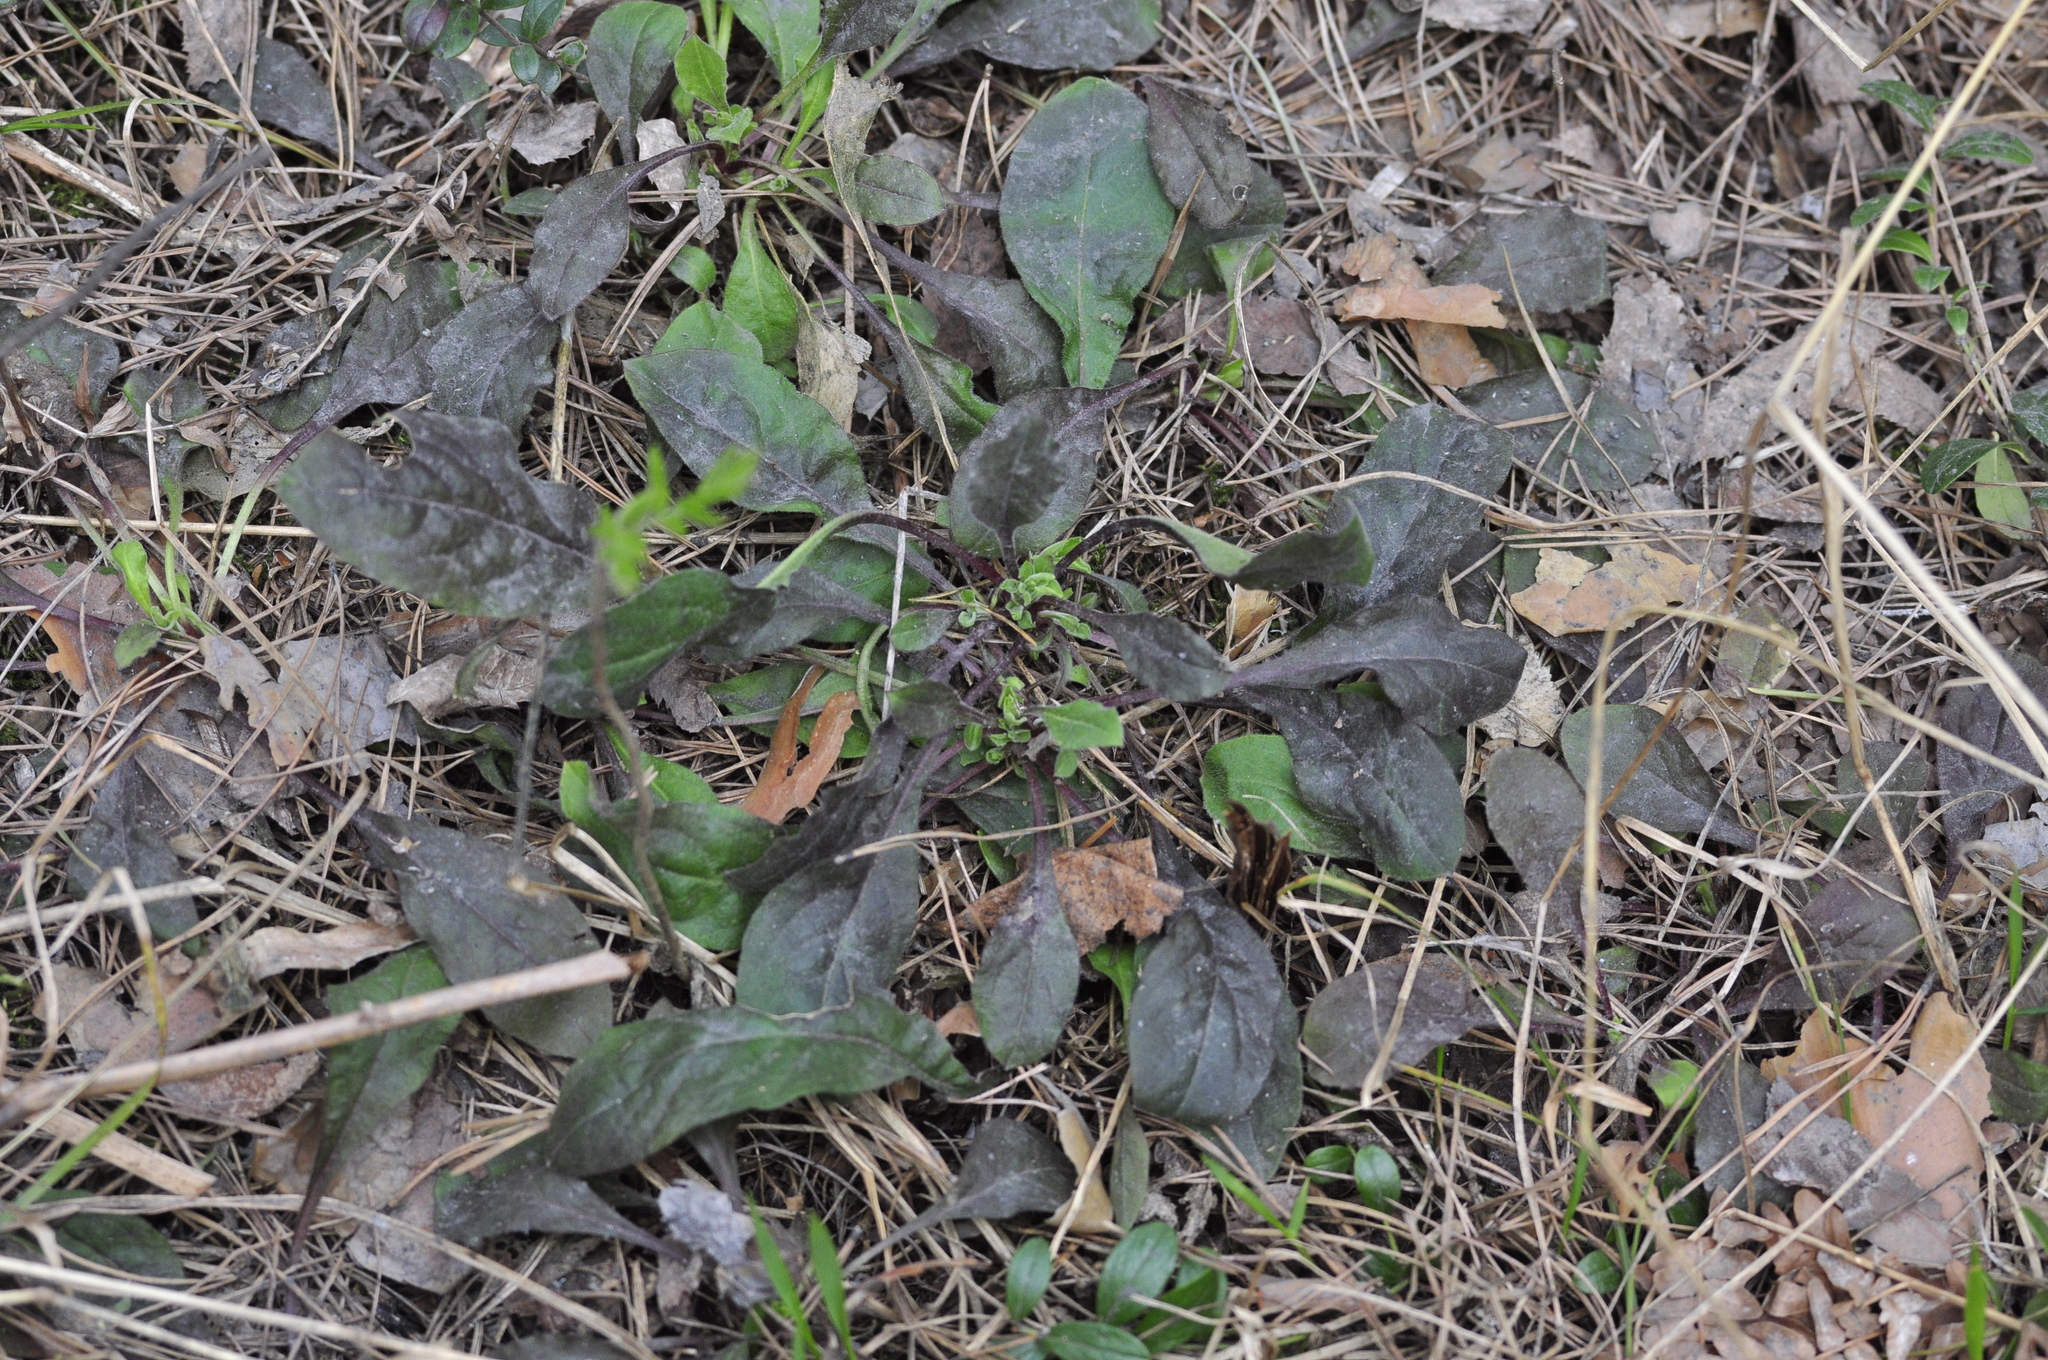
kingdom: Plantae
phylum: Tracheophyta
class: Magnoliopsida
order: Caryophyllales
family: Caryophyllaceae
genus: Silene
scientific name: Silene nutans
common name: Nottingham catchfly
